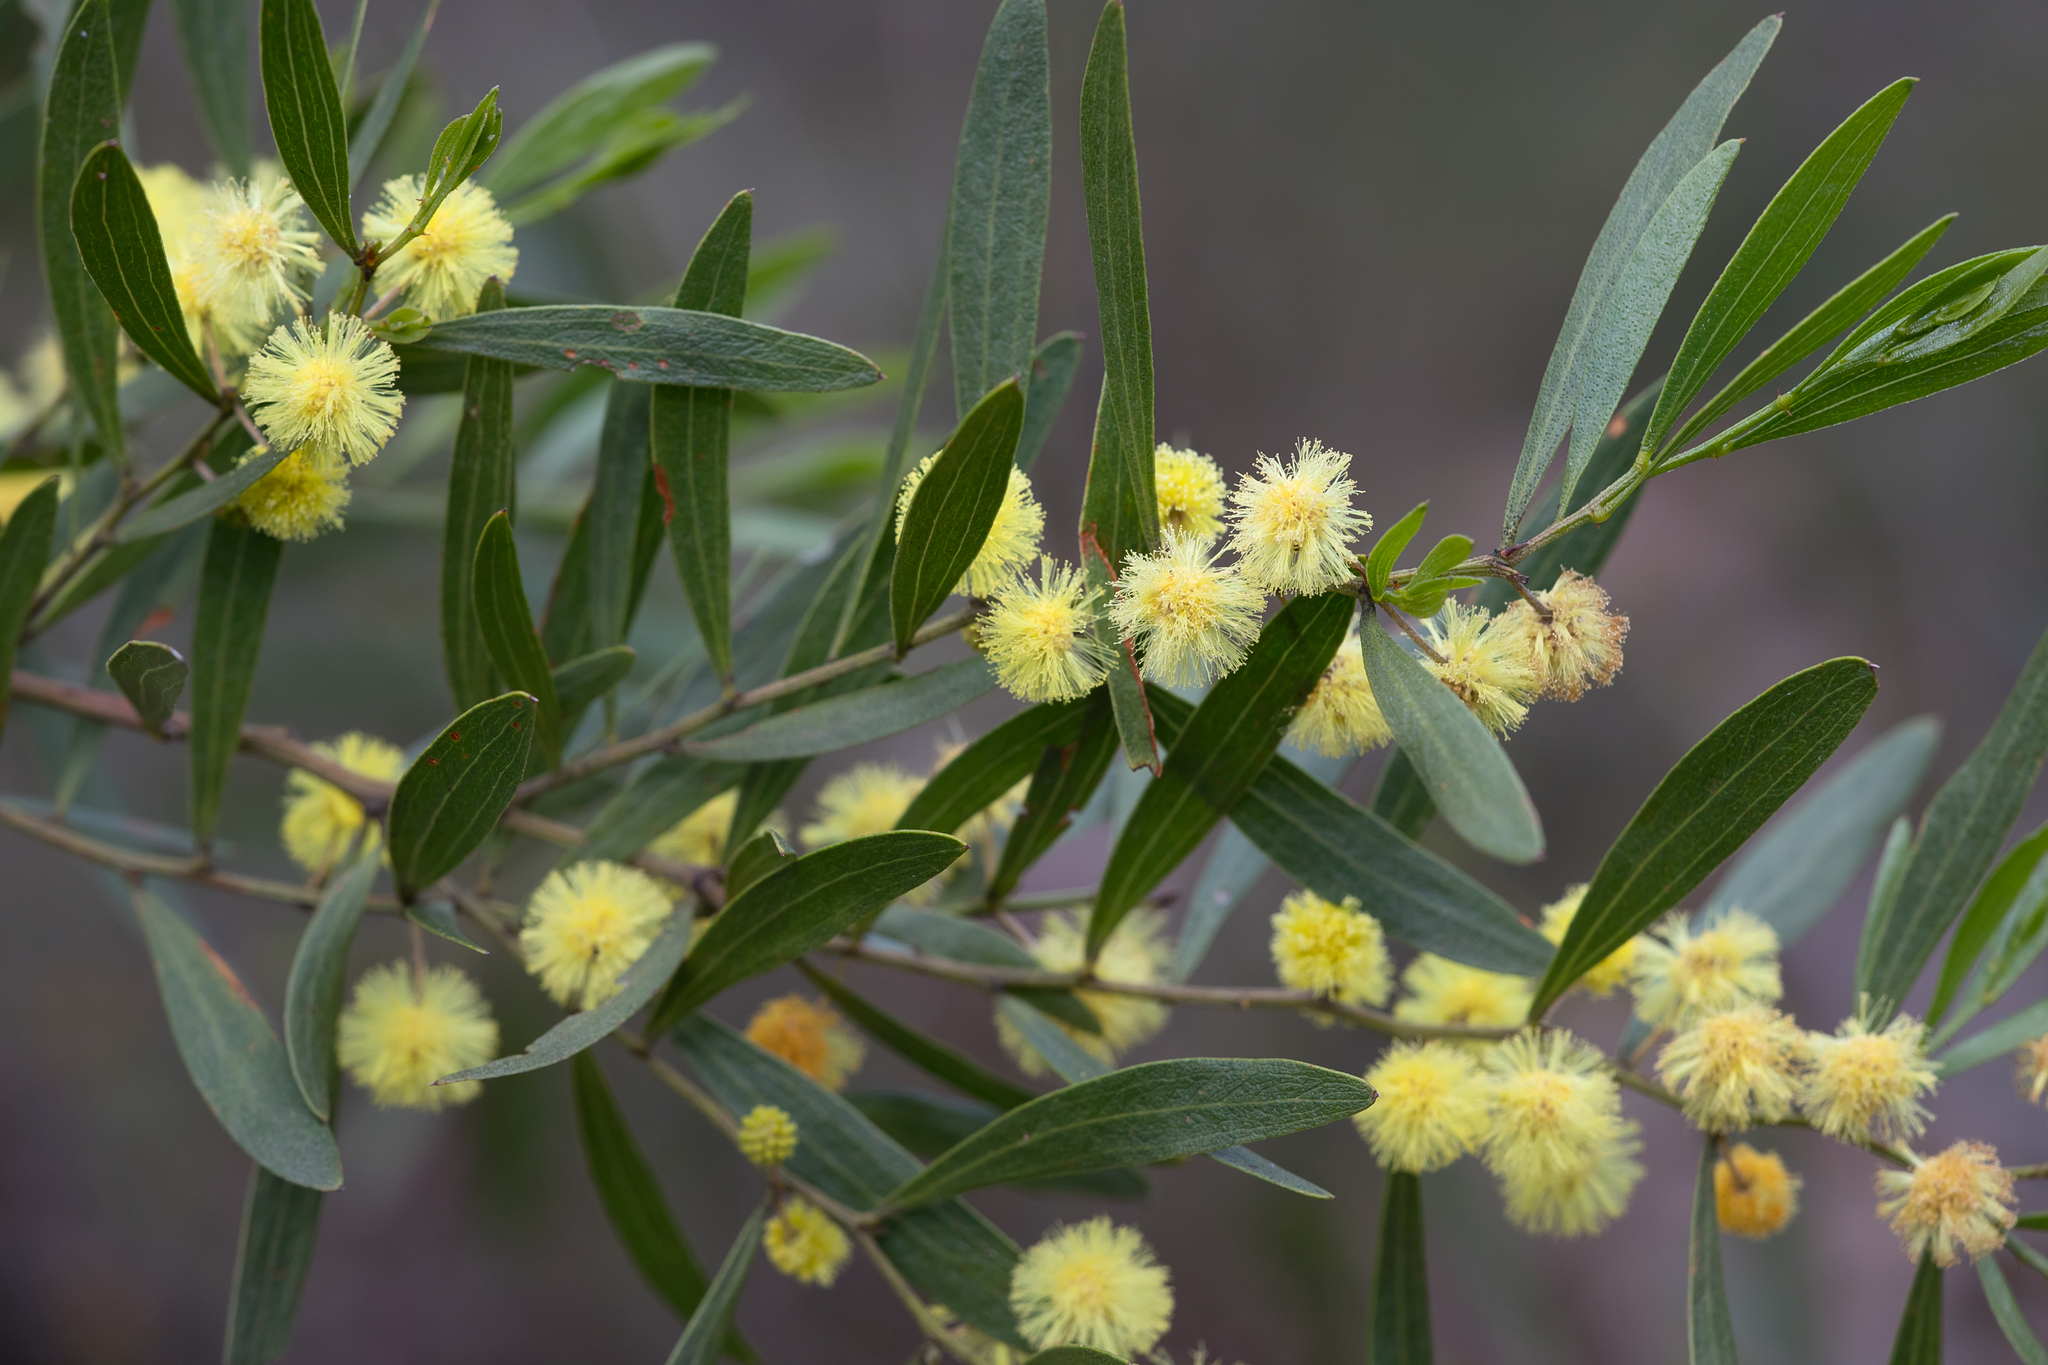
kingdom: Plantae
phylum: Tracheophyta
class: Magnoliopsida
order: Fabales
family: Fabaceae
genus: Acacia
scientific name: Acacia verniciflua
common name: Varnish wattle
